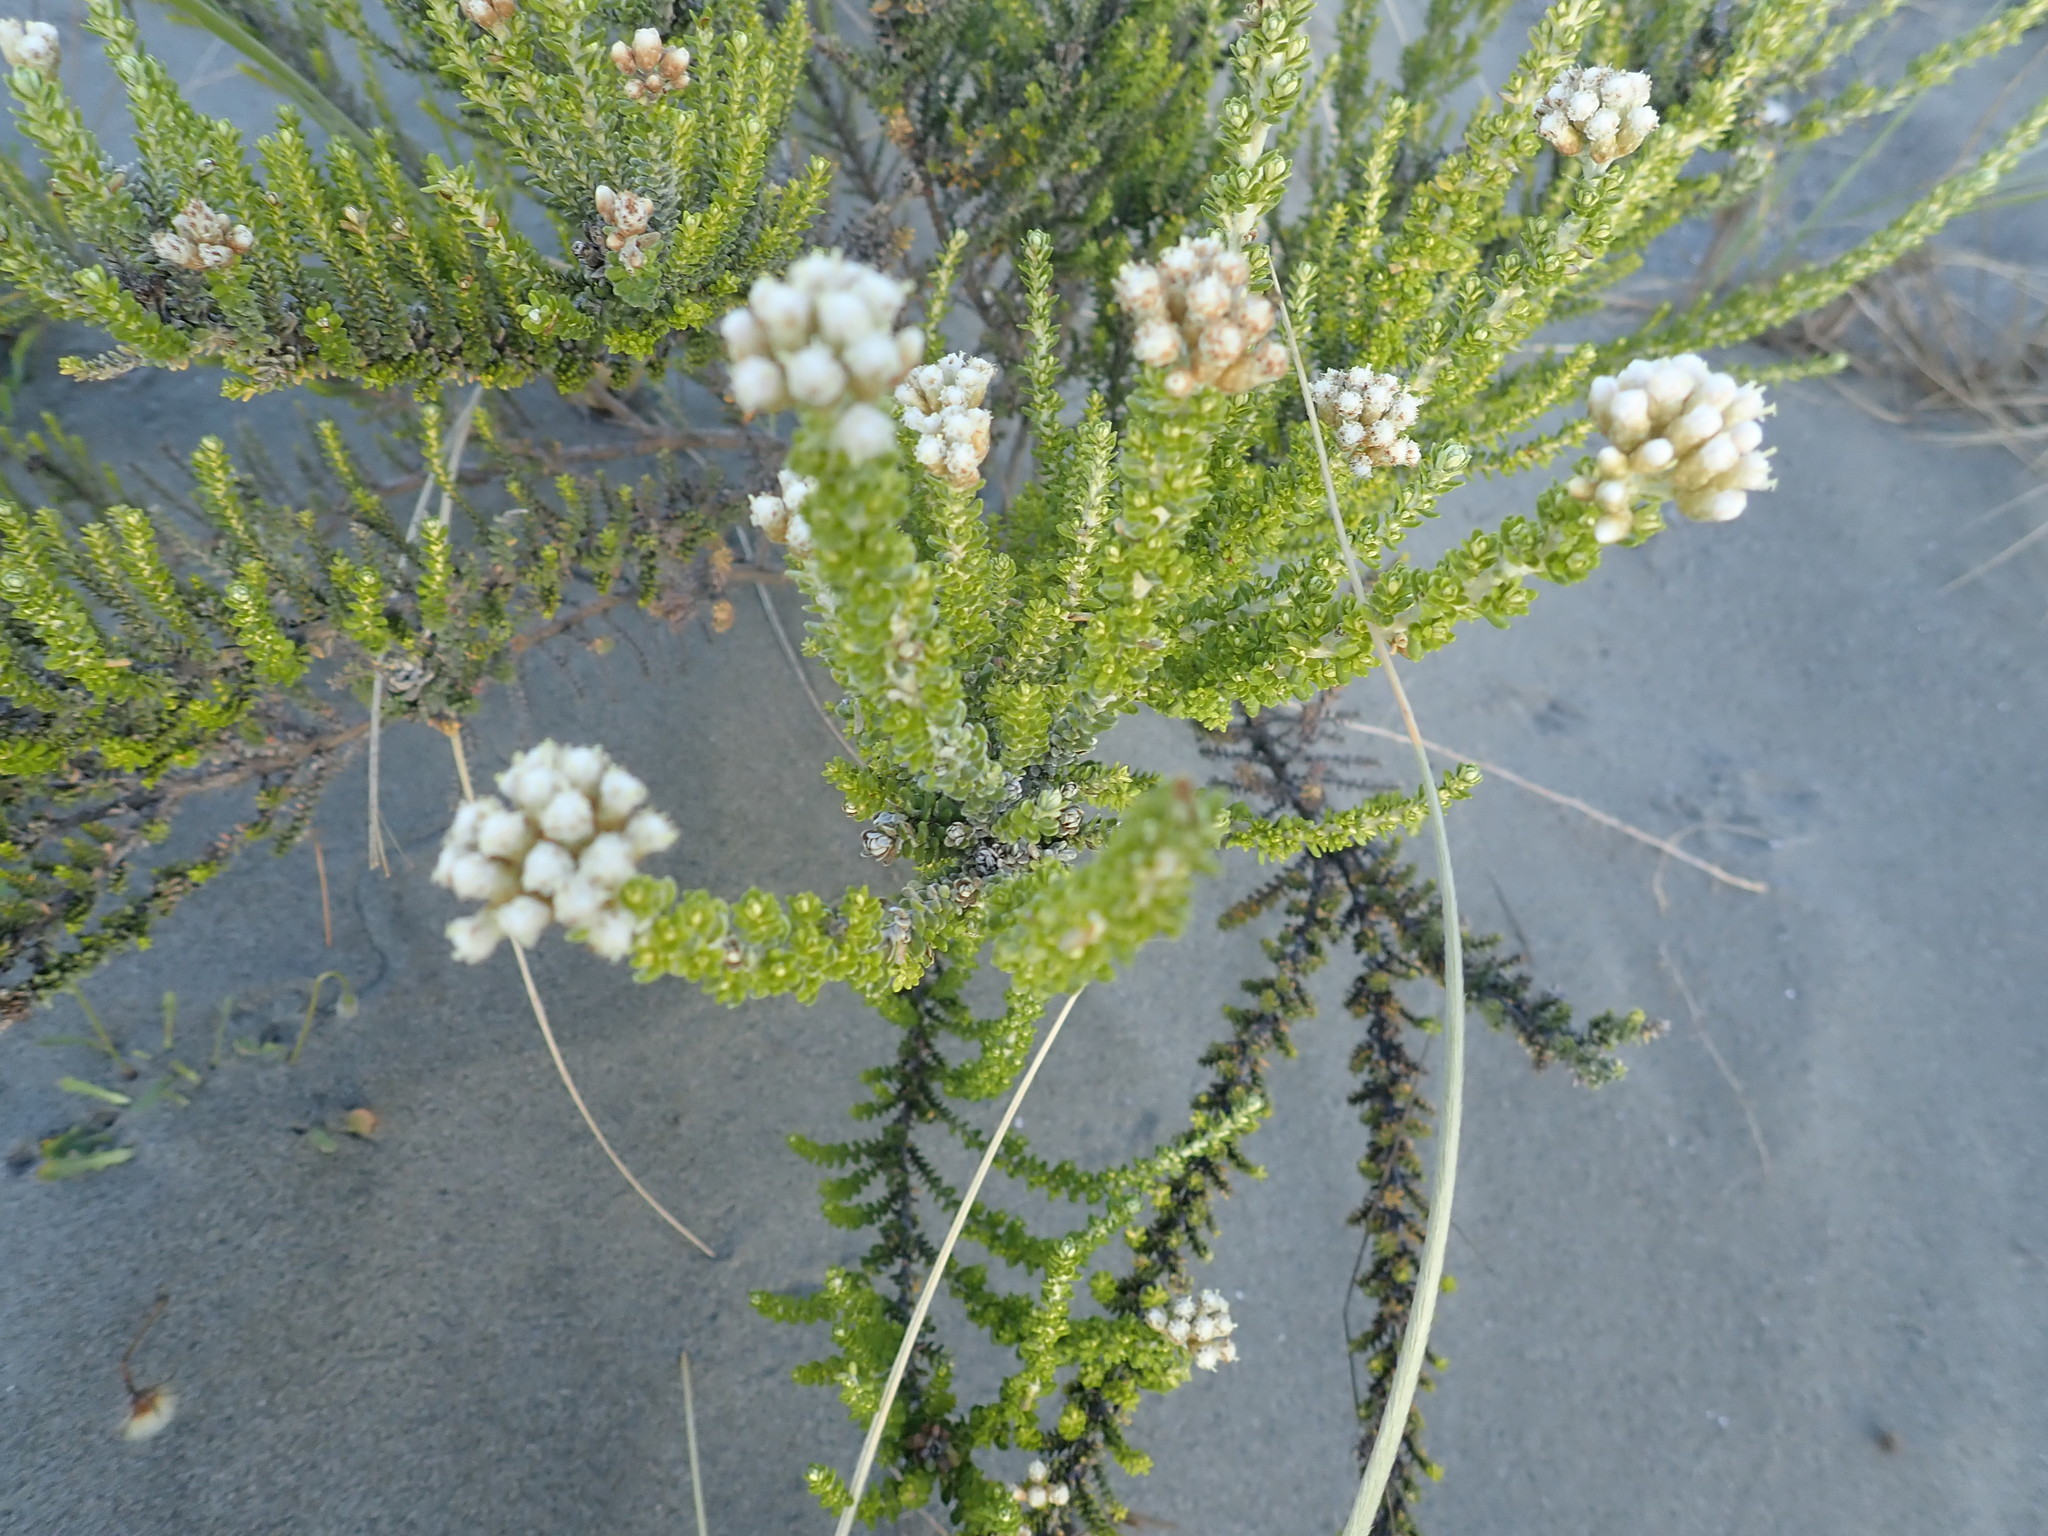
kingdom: Plantae
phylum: Tracheophyta
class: Magnoliopsida
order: Asterales
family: Asteraceae
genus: Ozothamnus
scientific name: Ozothamnus leptophyllus
